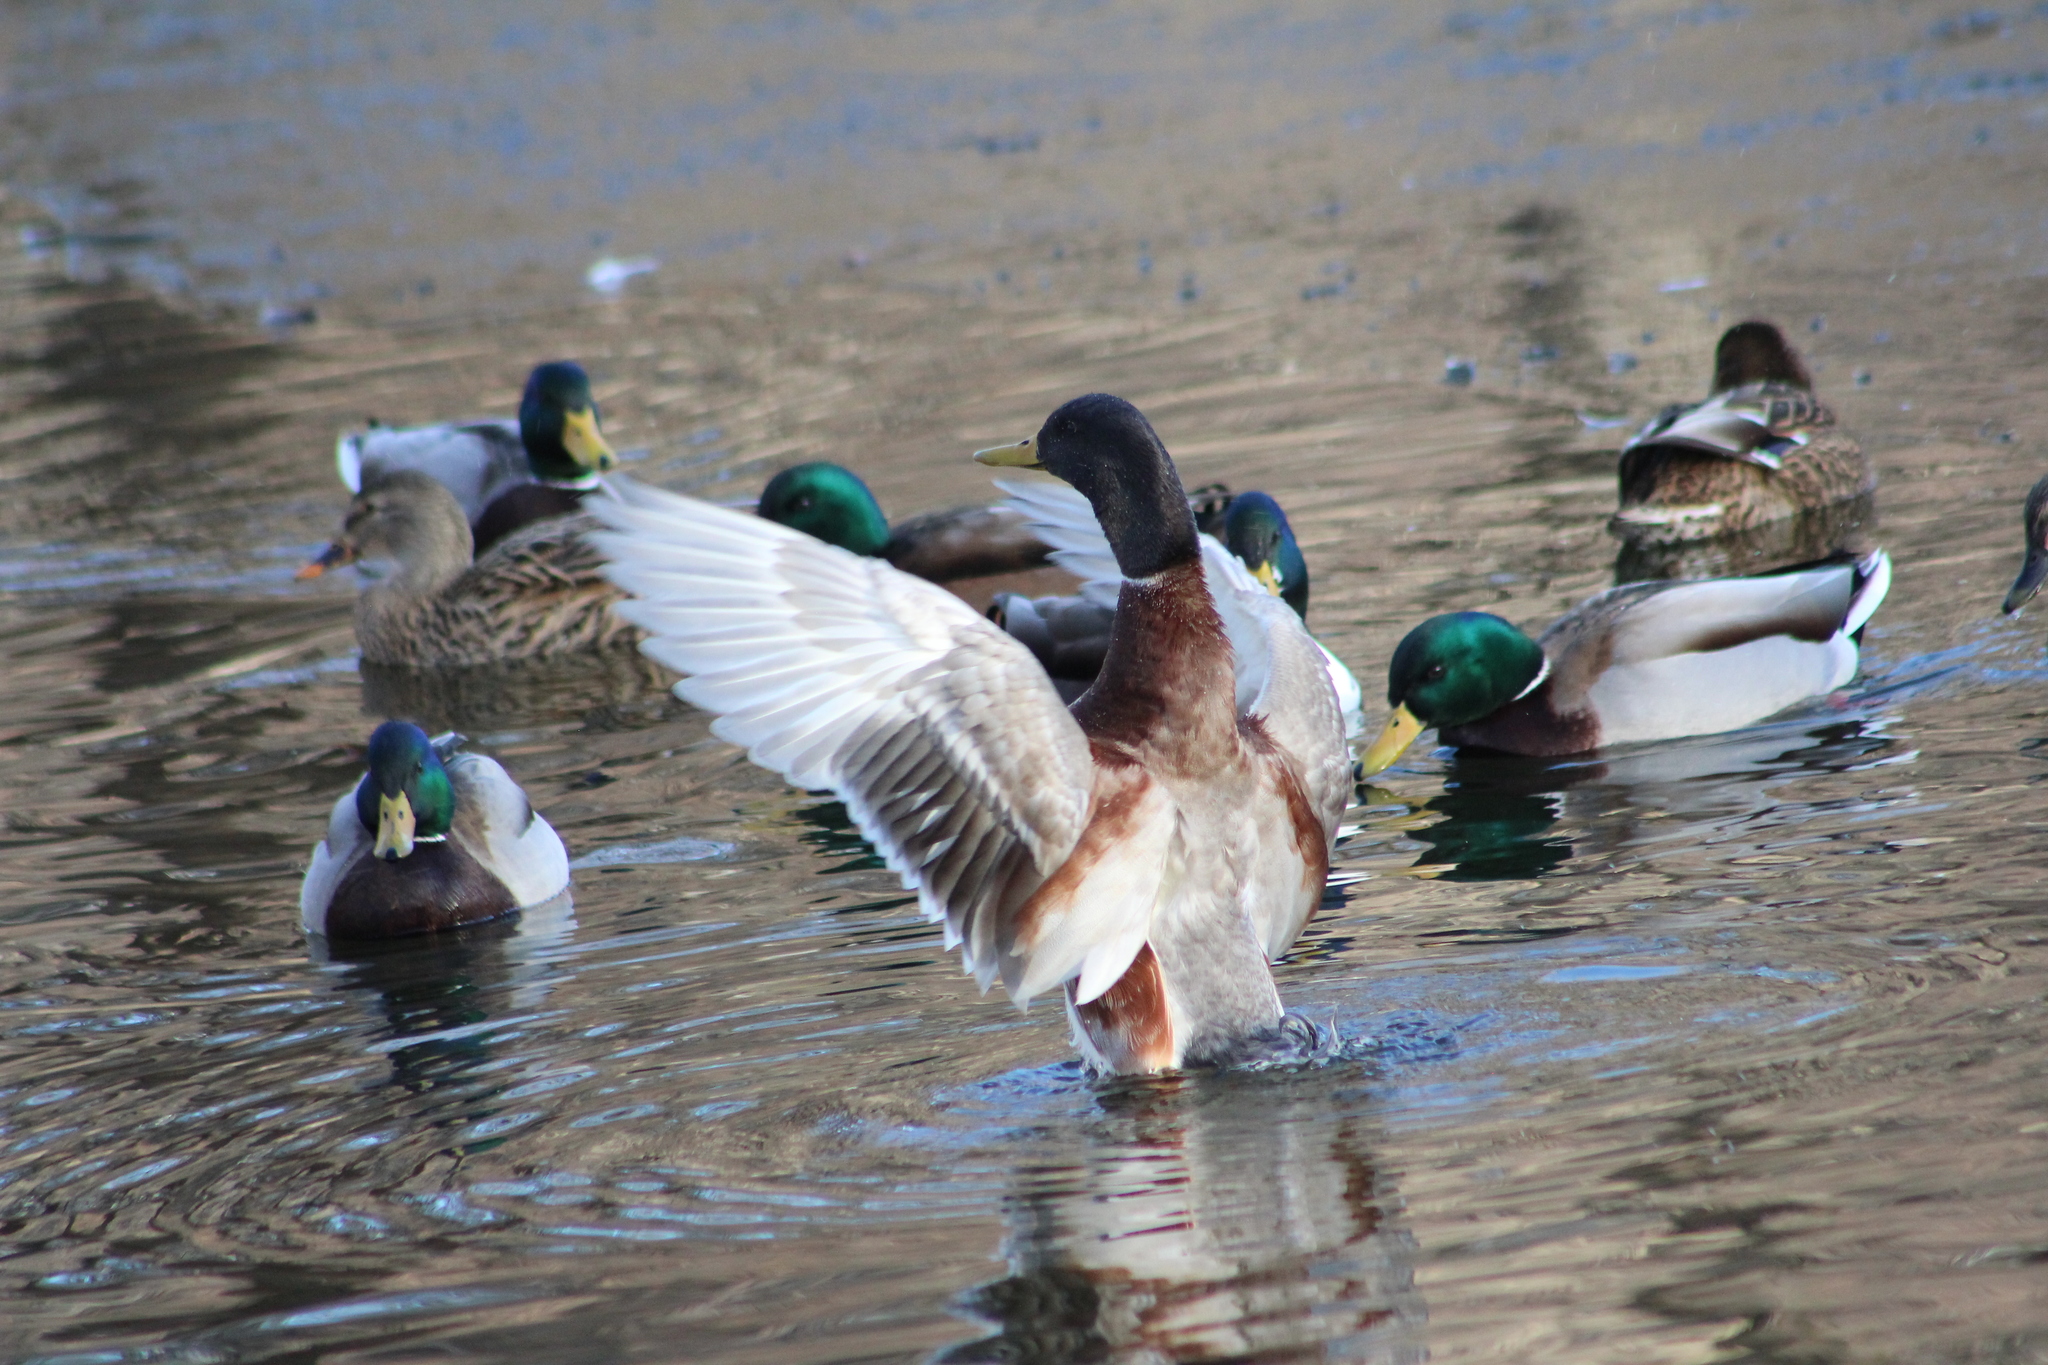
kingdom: Animalia
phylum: Chordata
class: Aves
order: Anseriformes
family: Anatidae
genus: Anas
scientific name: Anas platyrhynchos
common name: Mallard
